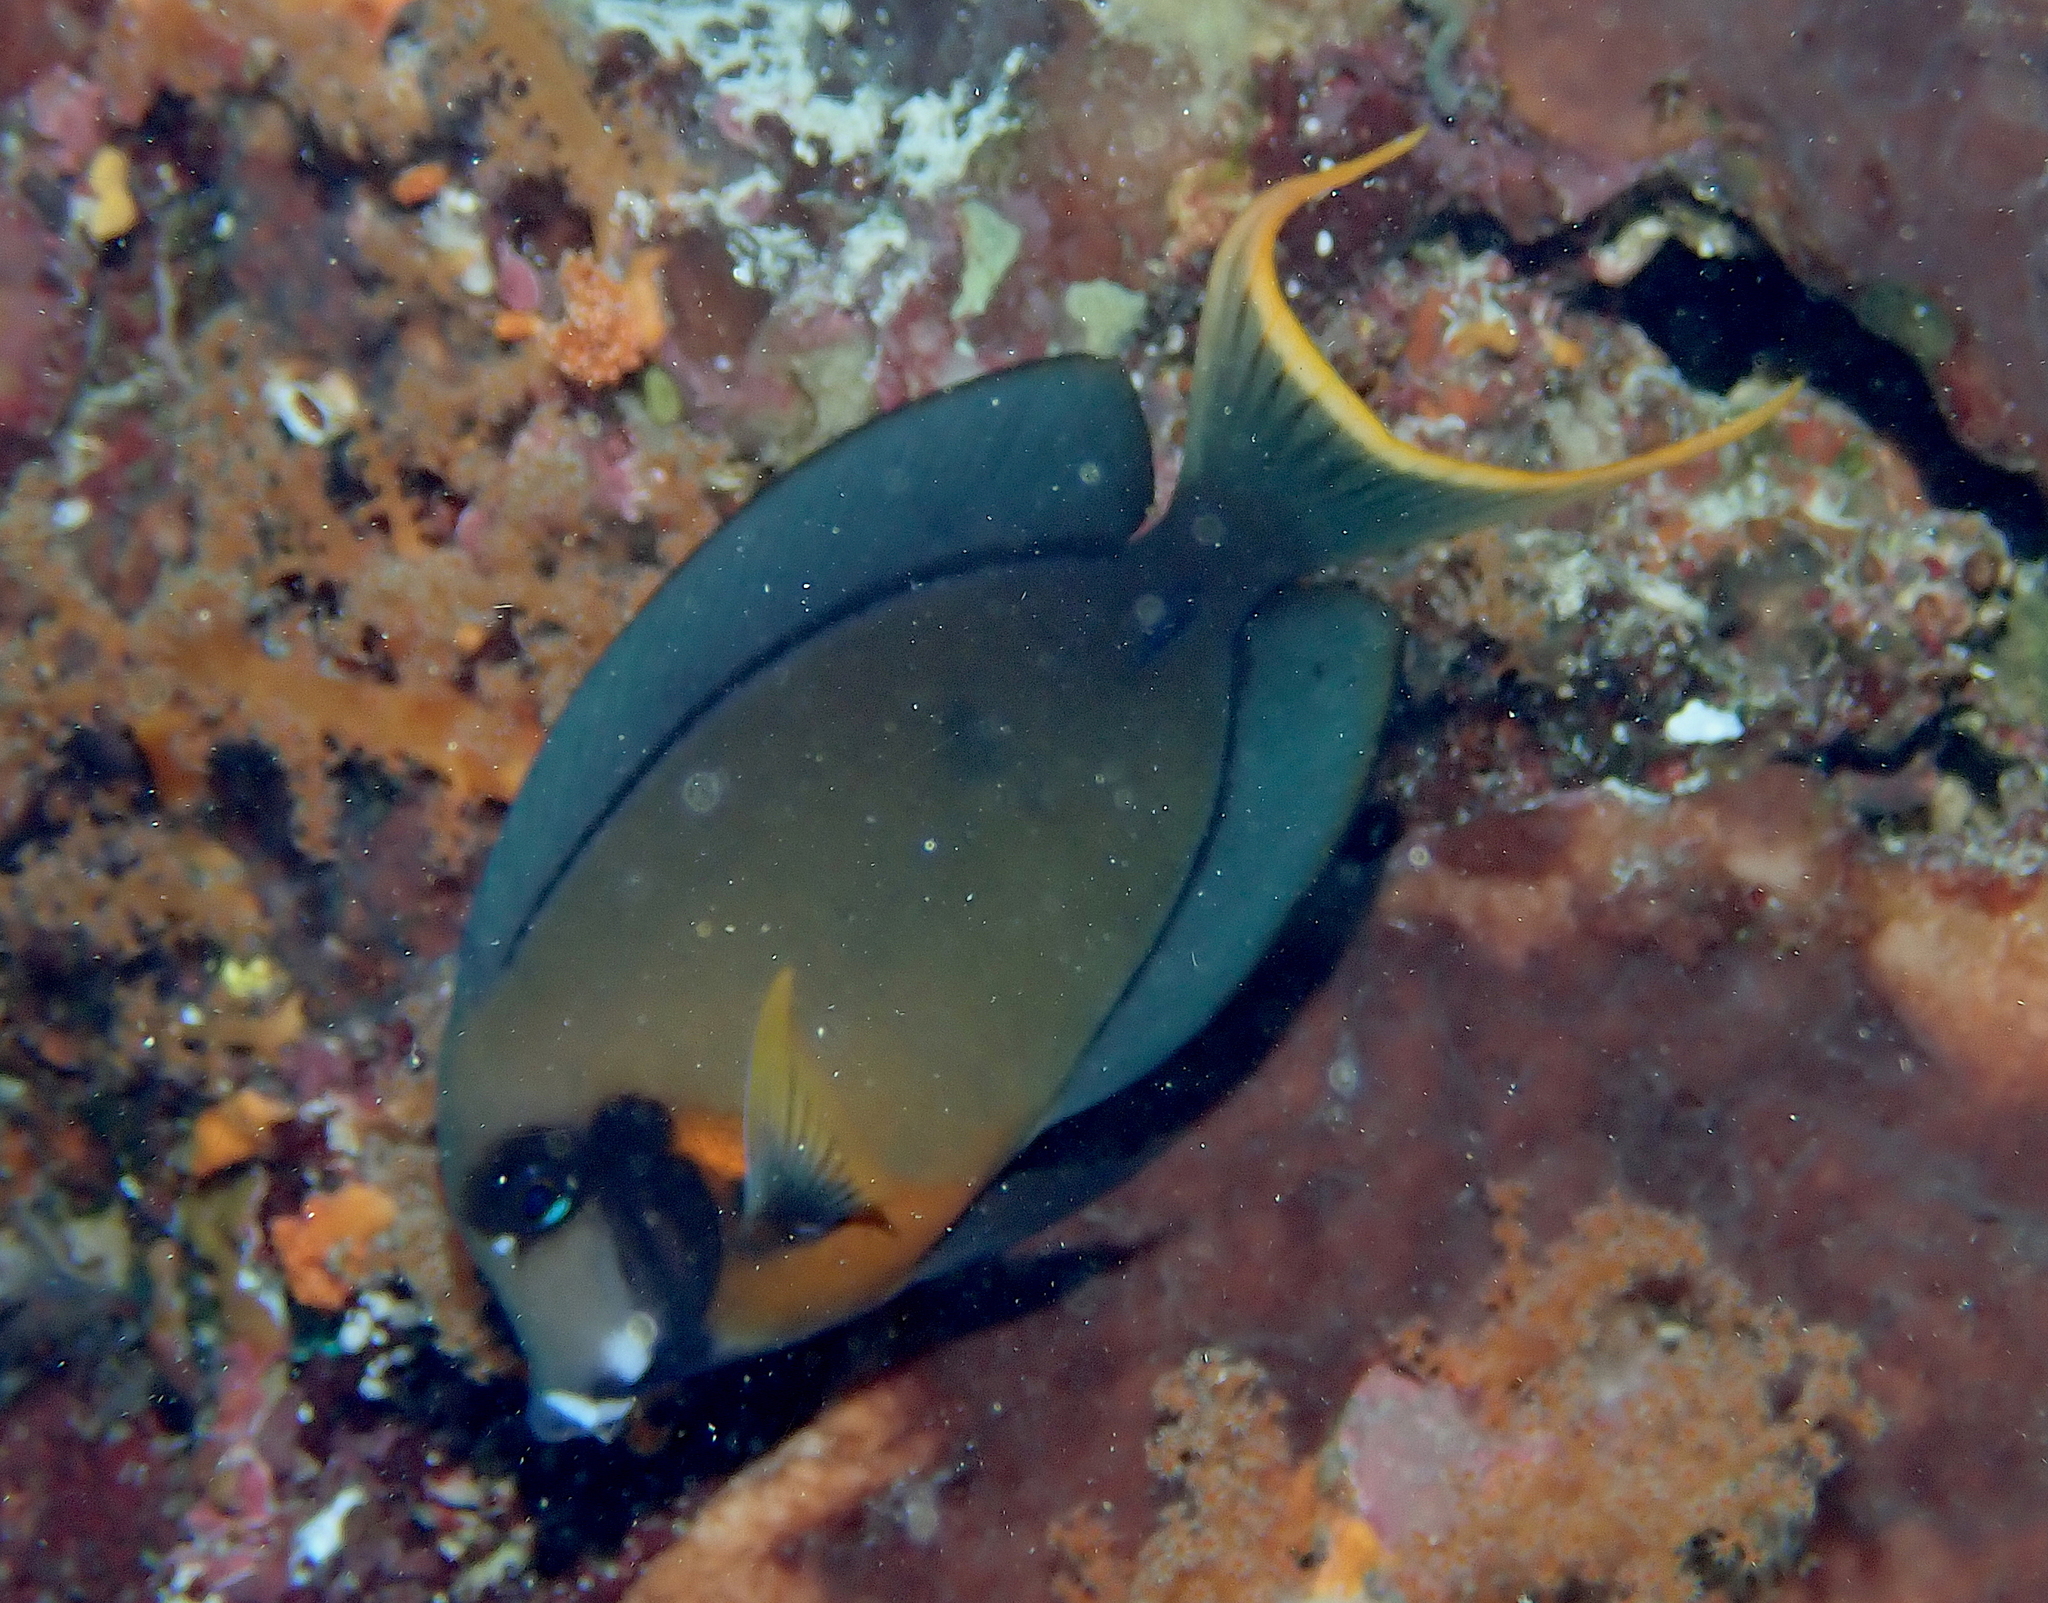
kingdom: Animalia
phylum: Chordata
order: Perciformes
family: Acanthuridae
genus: Acanthurus
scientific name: Acanthurus pyroferus
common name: Chocolate surgeonfish
